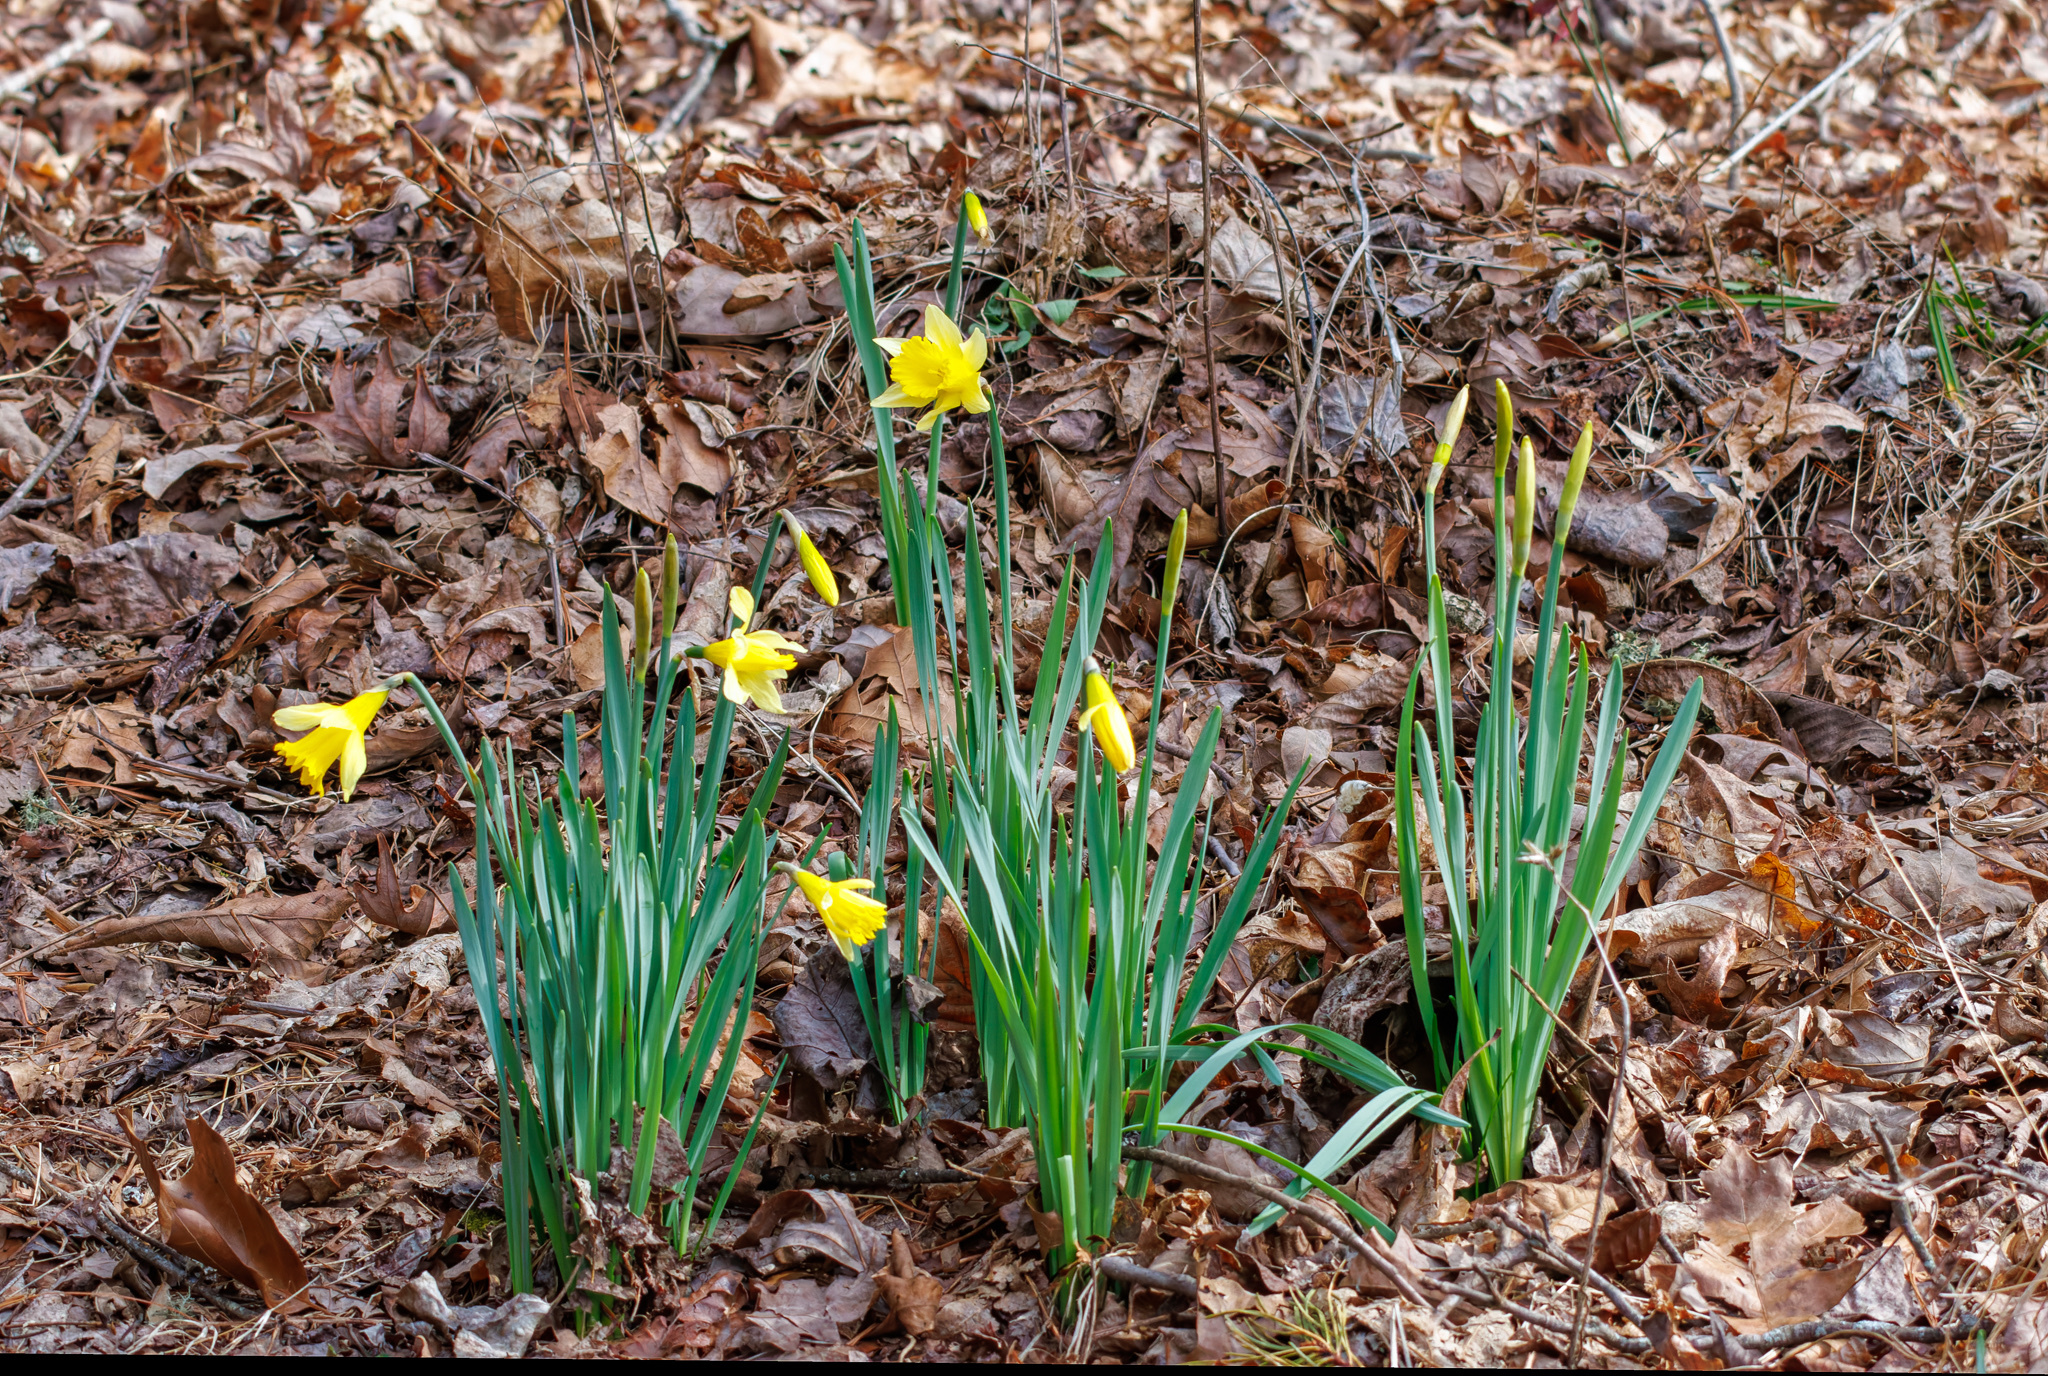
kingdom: Plantae
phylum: Tracheophyta
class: Liliopsida
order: Asparagales
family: Amaryllidaceae
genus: Narcissus
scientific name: Narcissus pseudonarcissus
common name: Daffodil
